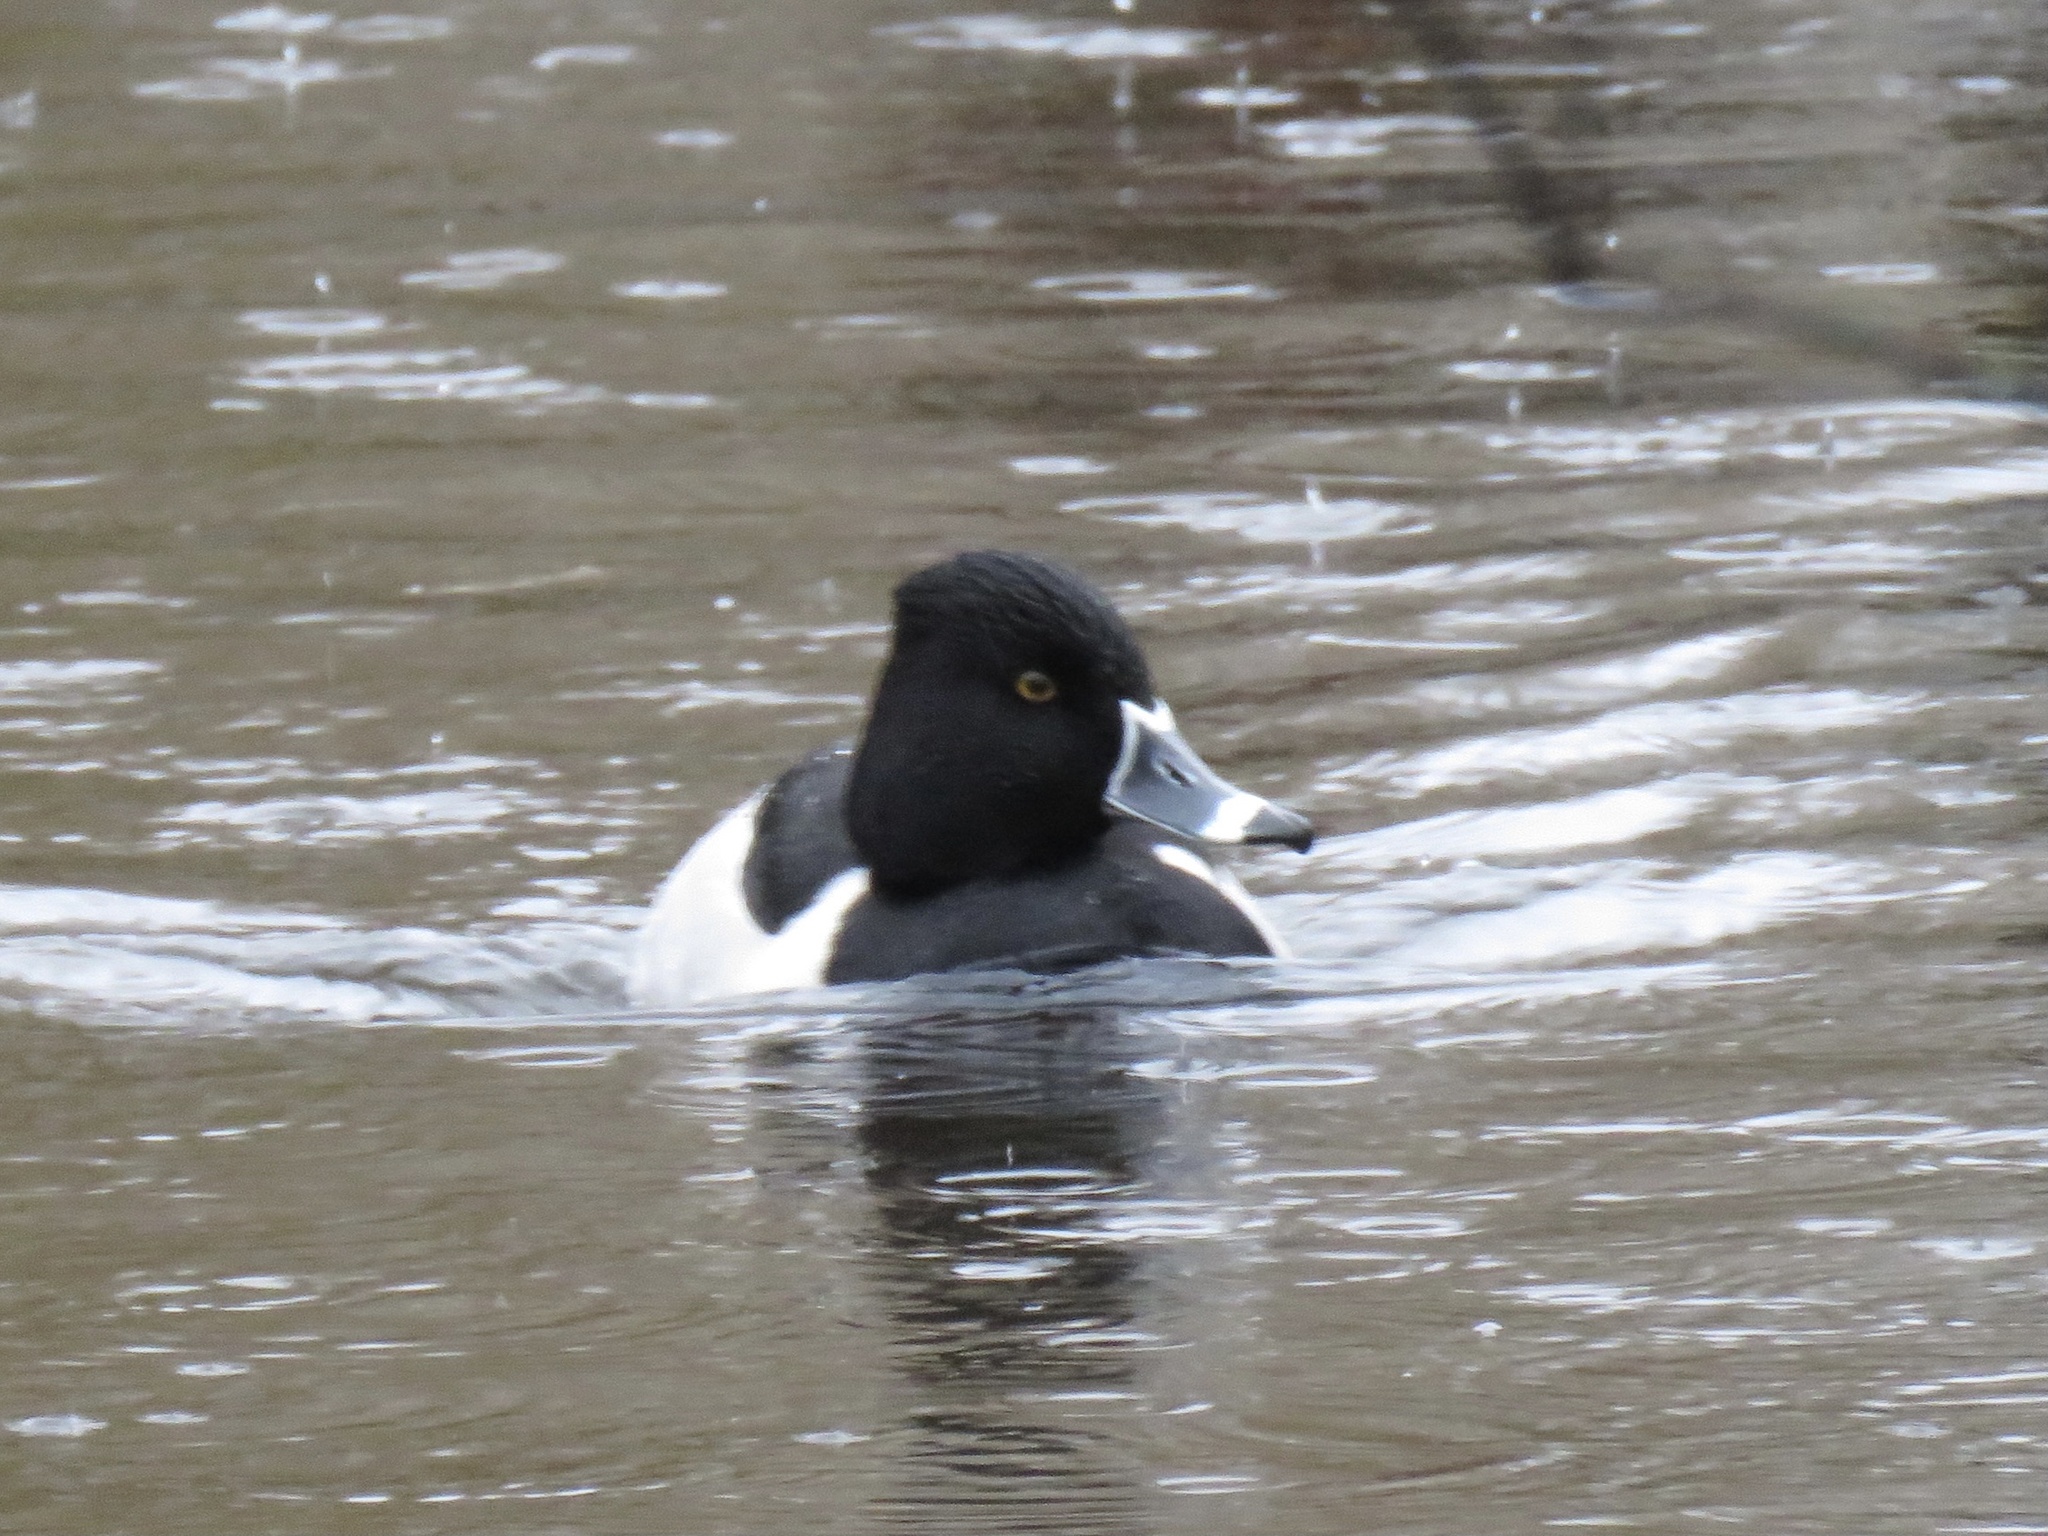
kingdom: Animalia
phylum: Chordata
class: Aves
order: Anseriformes
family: Anatidae
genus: Aythya
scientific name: Aythya collaris
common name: Ring-necked duck
